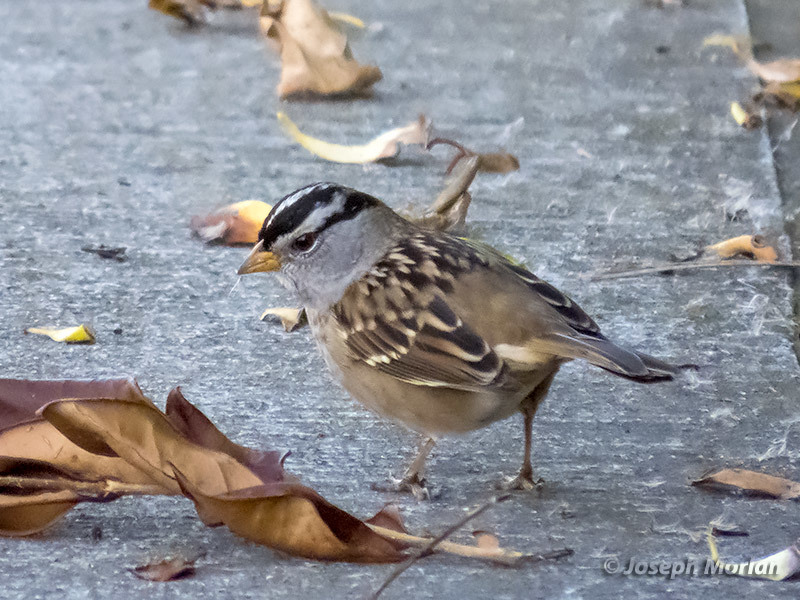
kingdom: Animalia
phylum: Chordata
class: Aves
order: Passeriformes
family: Passerellidae
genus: Zonotrichia
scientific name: Zonotrichia leucophrys
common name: White-crowned sparrow
